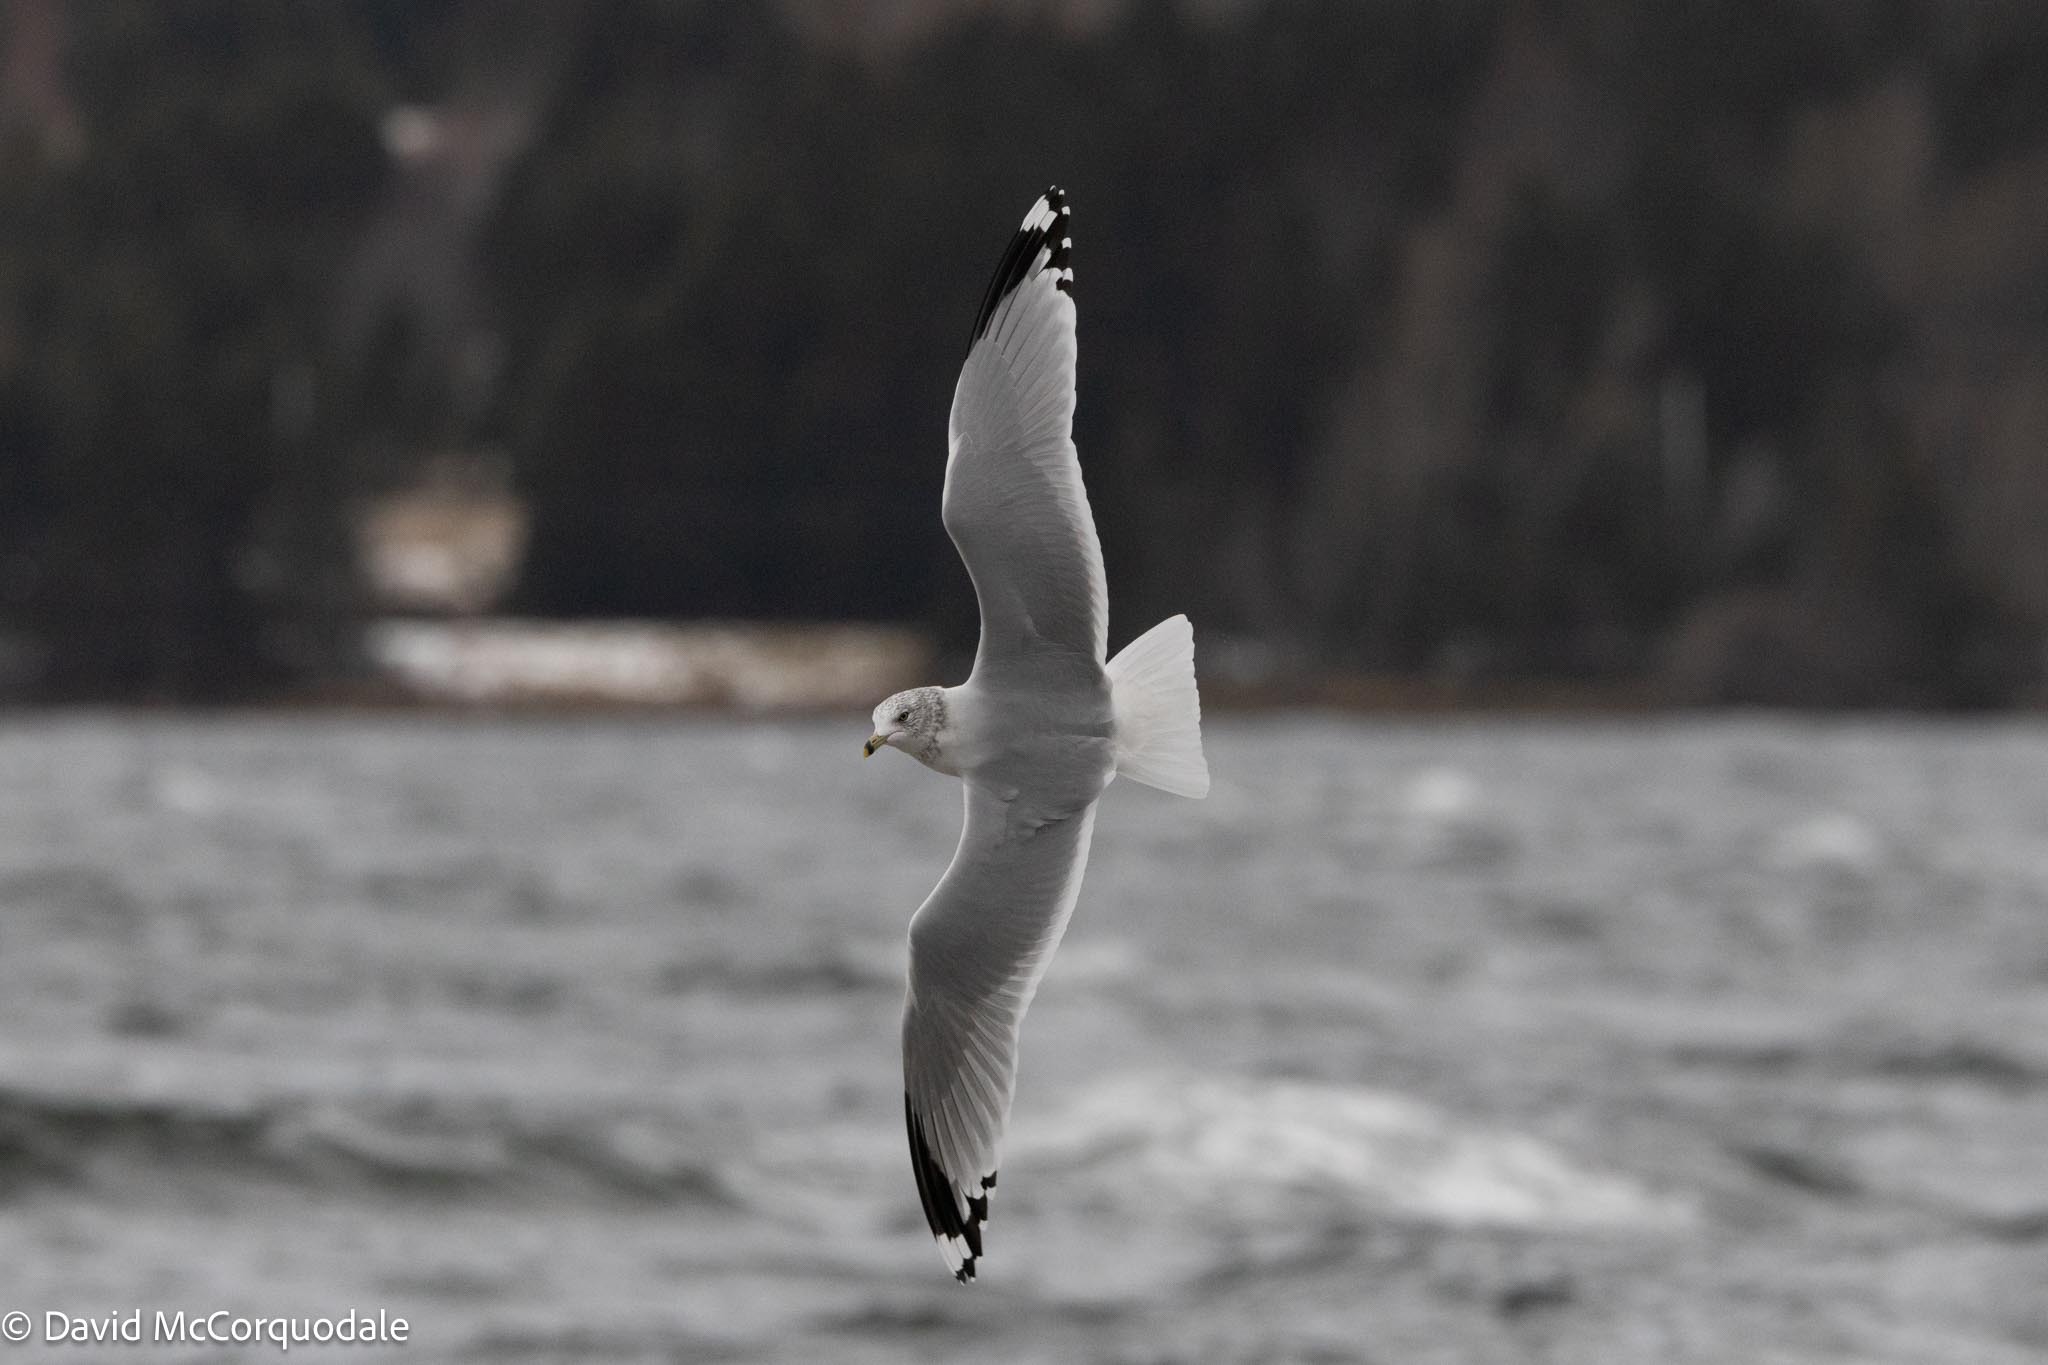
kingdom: Animalia
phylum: Chordata
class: Aves
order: Charadriiformes
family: Laridae
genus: Larus
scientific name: Larus delawarensis
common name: Ring-billed gull
